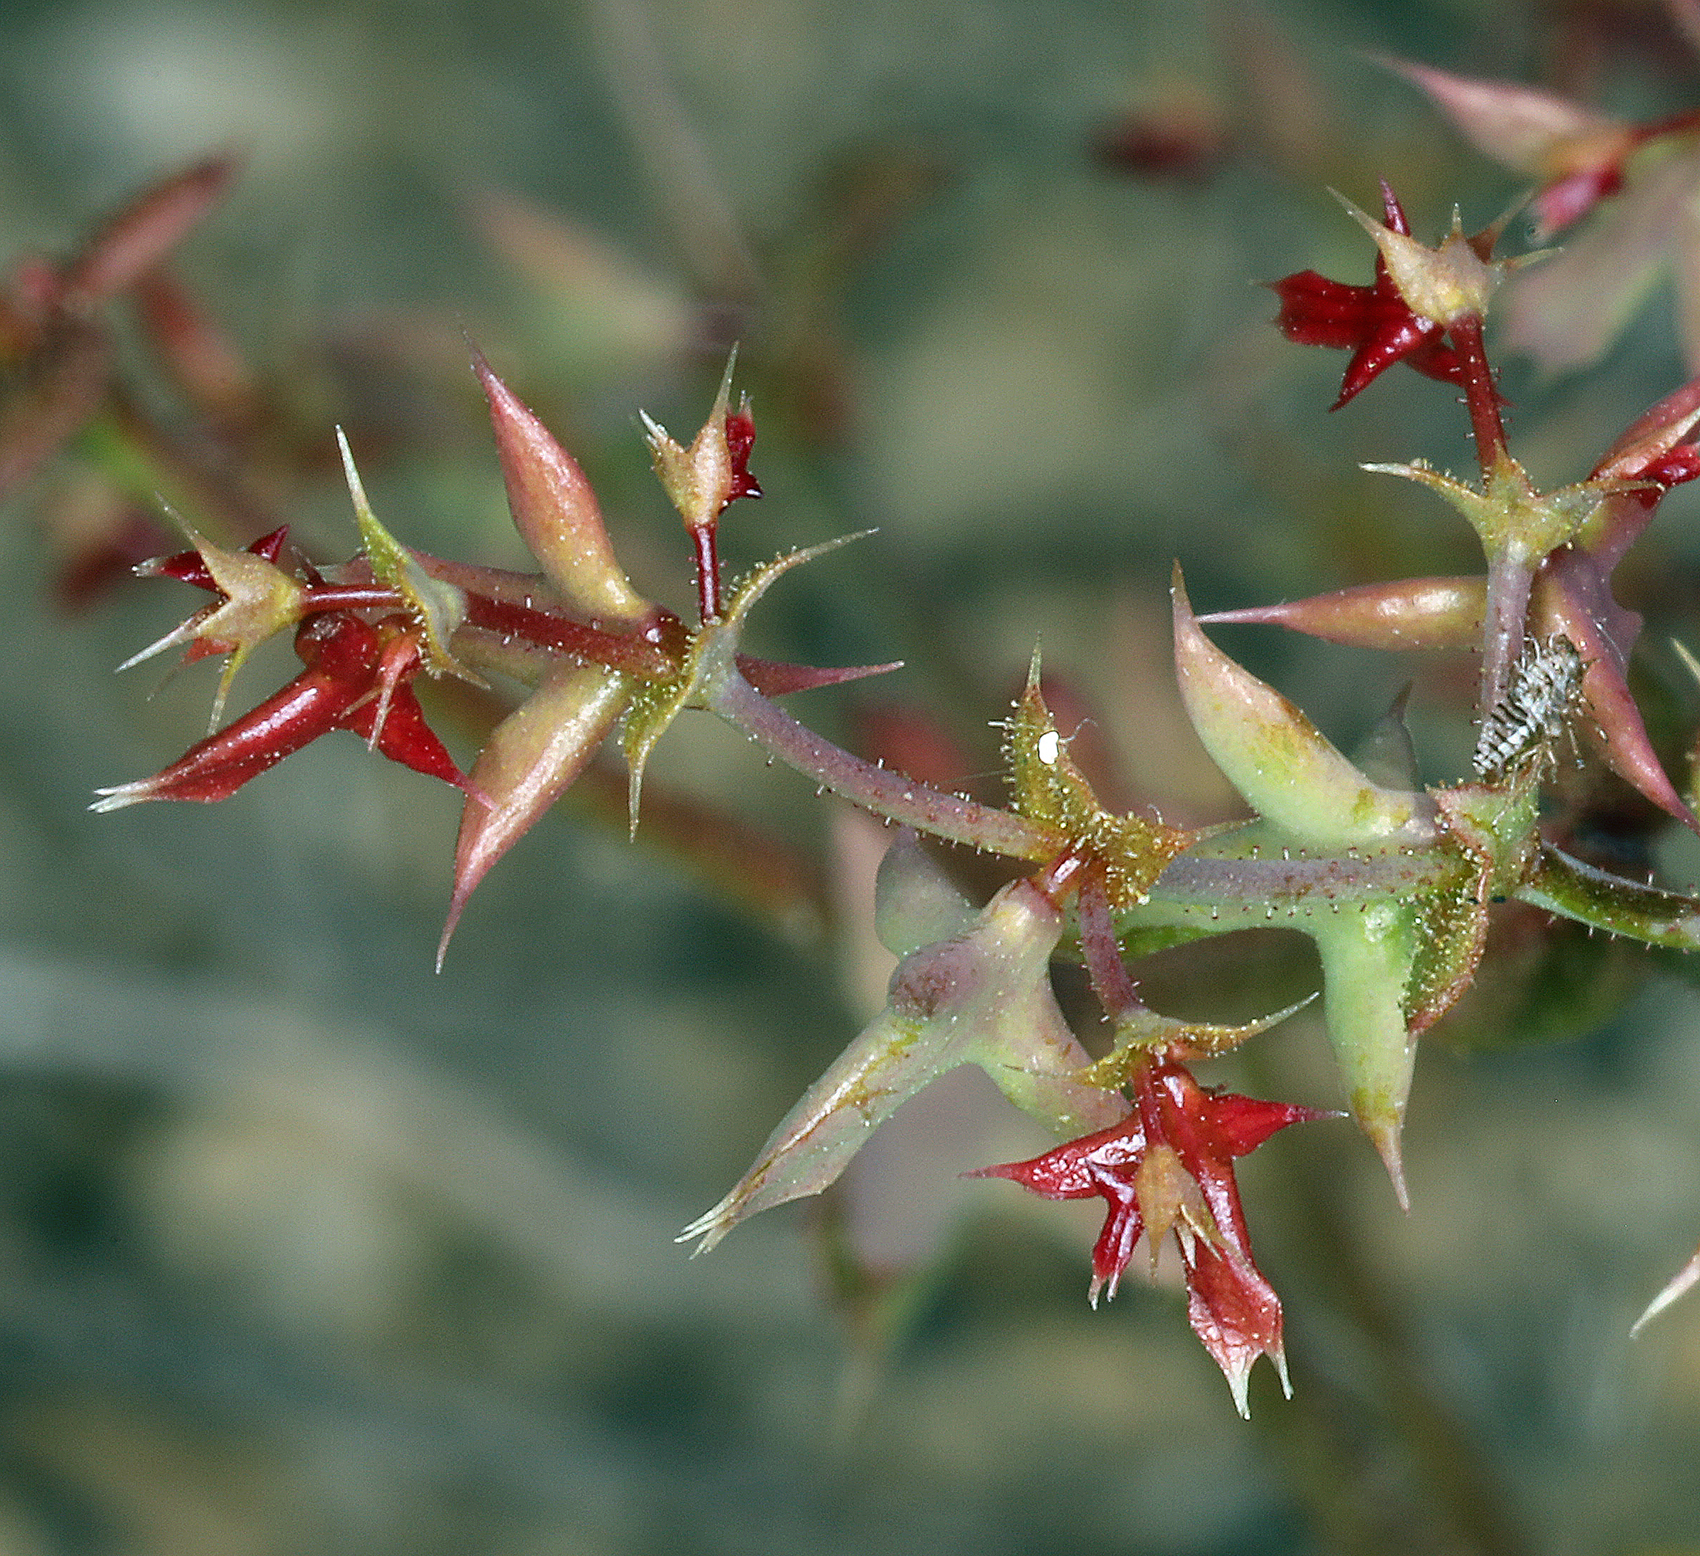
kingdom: Plantae
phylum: Tracheophyta
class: Magnoliopsida
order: Caryophyllales
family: Polygonaceae
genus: Centrostegia
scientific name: Centrostegia thurberi
